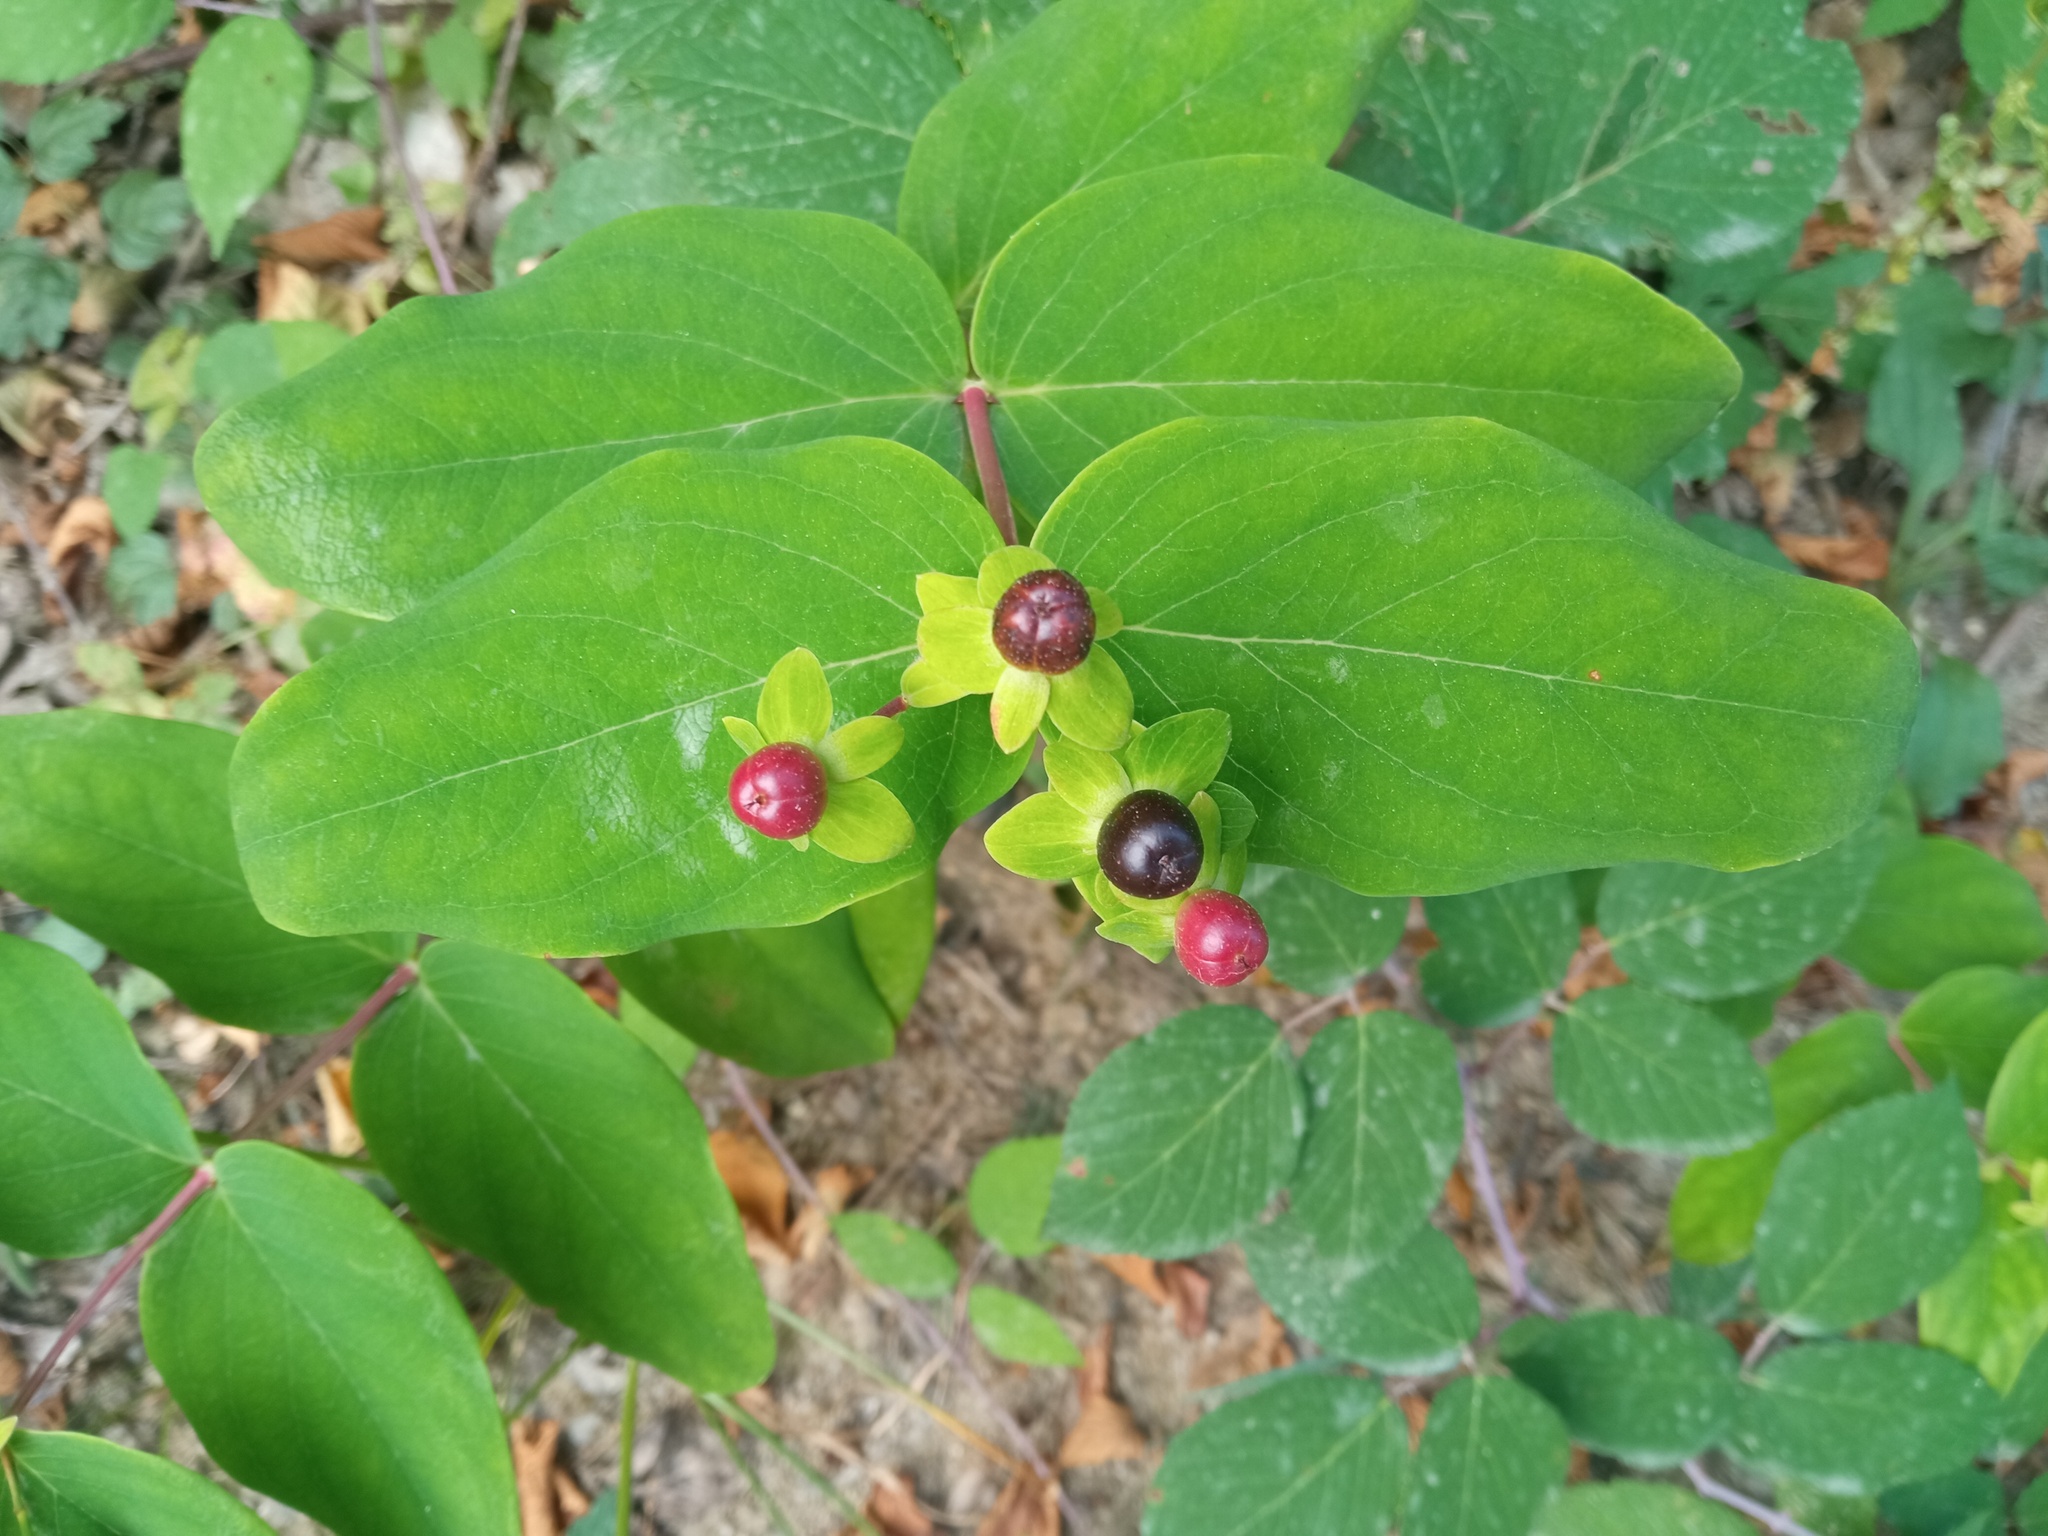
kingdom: Plantae
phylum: Tracheophyta
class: Magnoliopsida
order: Malpighiales
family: Hypericaceae
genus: Hypericum
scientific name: Hypericum androsaemum
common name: Sweet-amber
